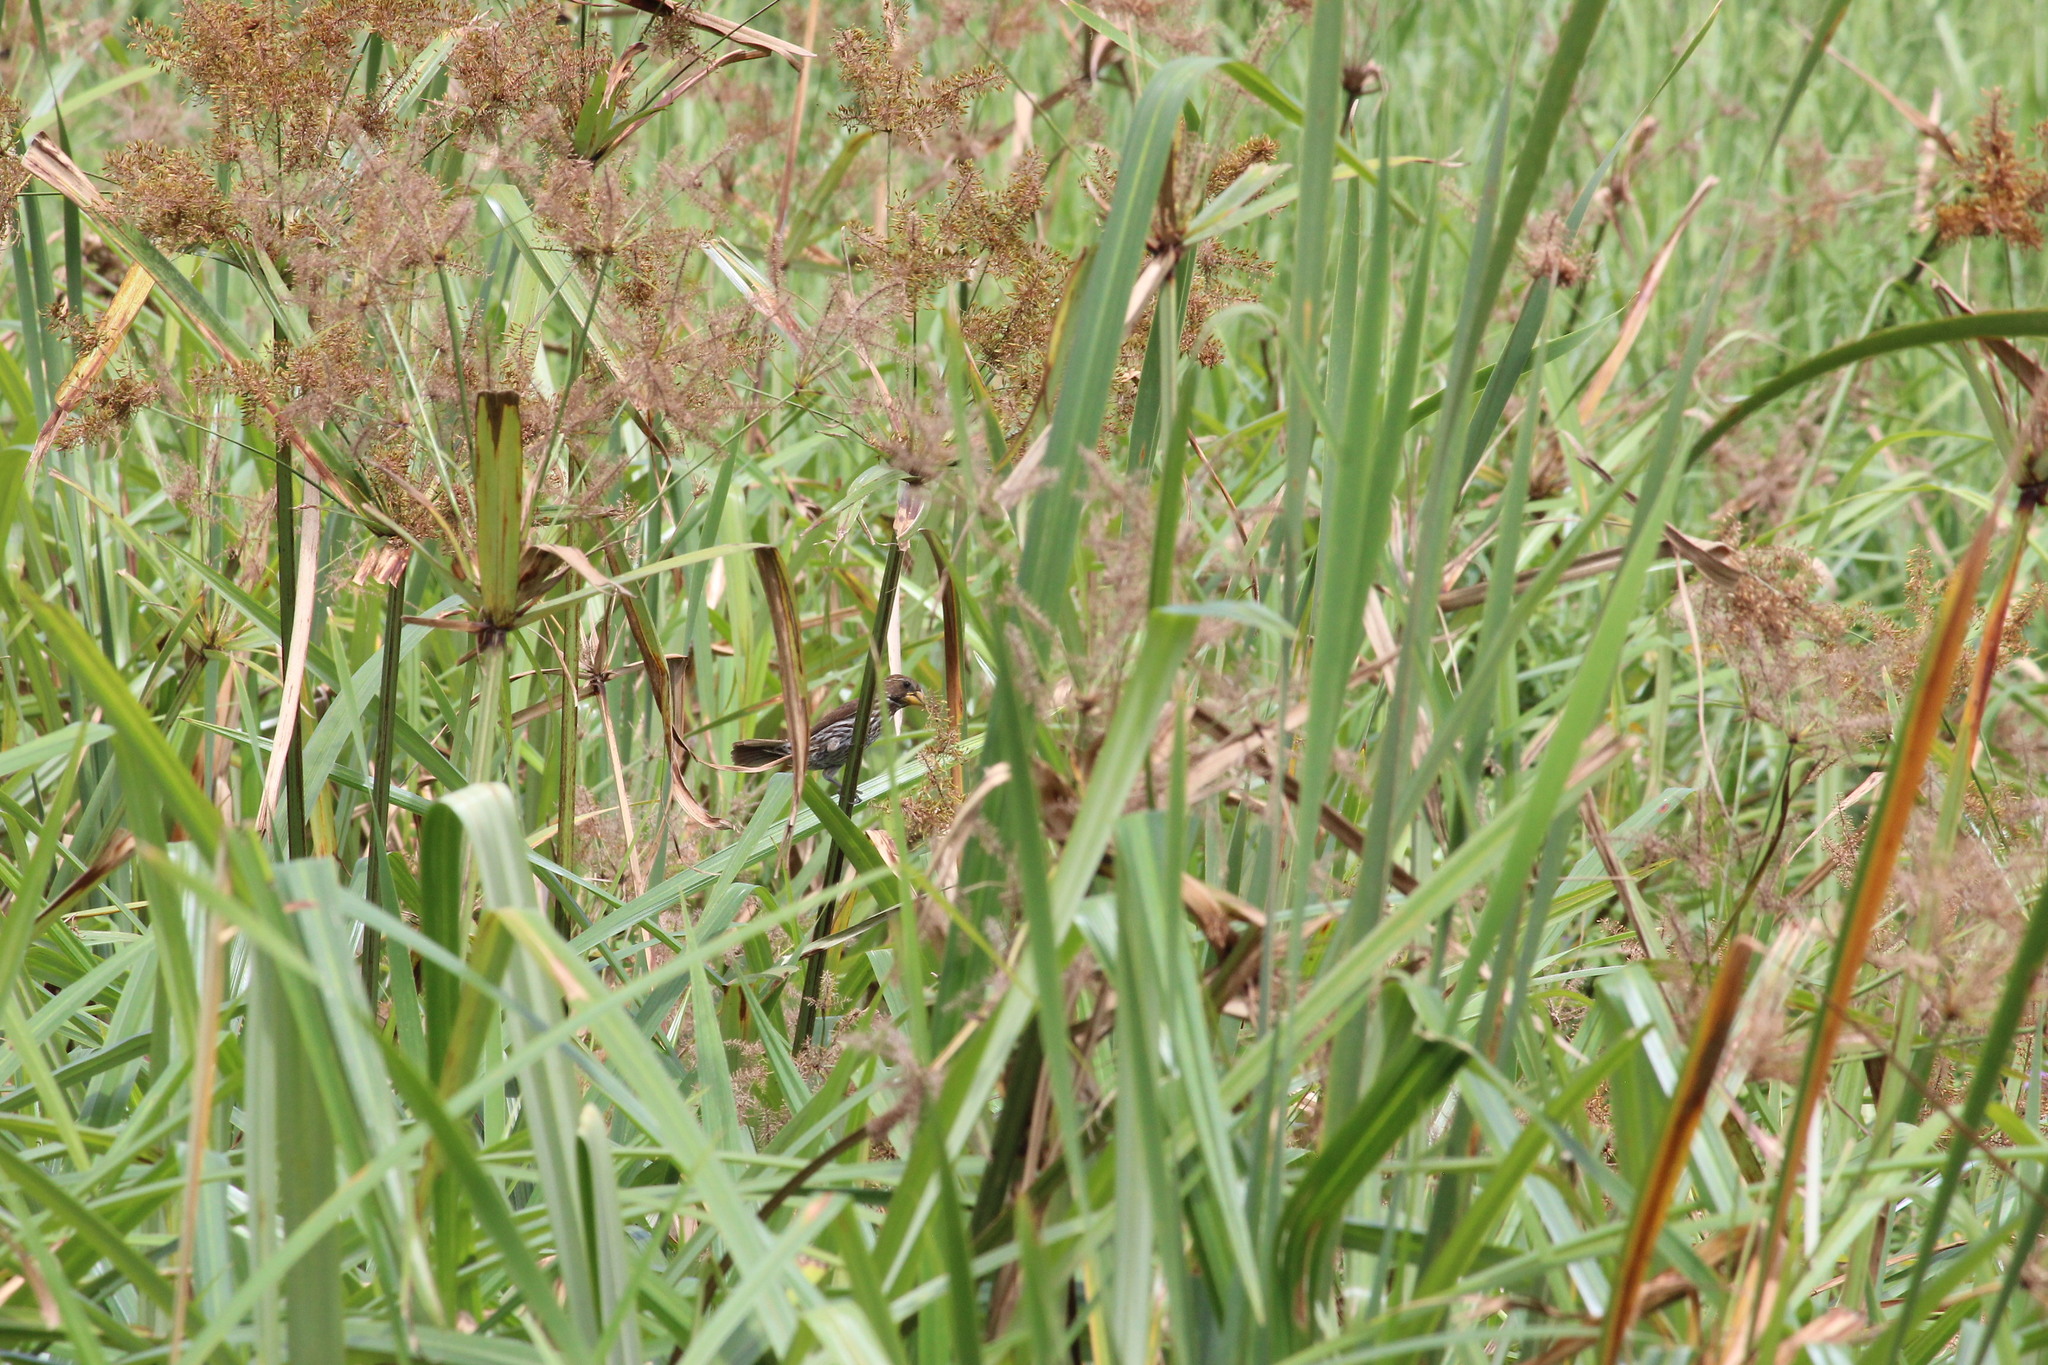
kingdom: Animalia
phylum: Chordata
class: Aves
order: Passeriformes
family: Ploceidae
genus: Amblyospiza
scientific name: Amblyospiza albifrons
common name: Thick-billed weaver
